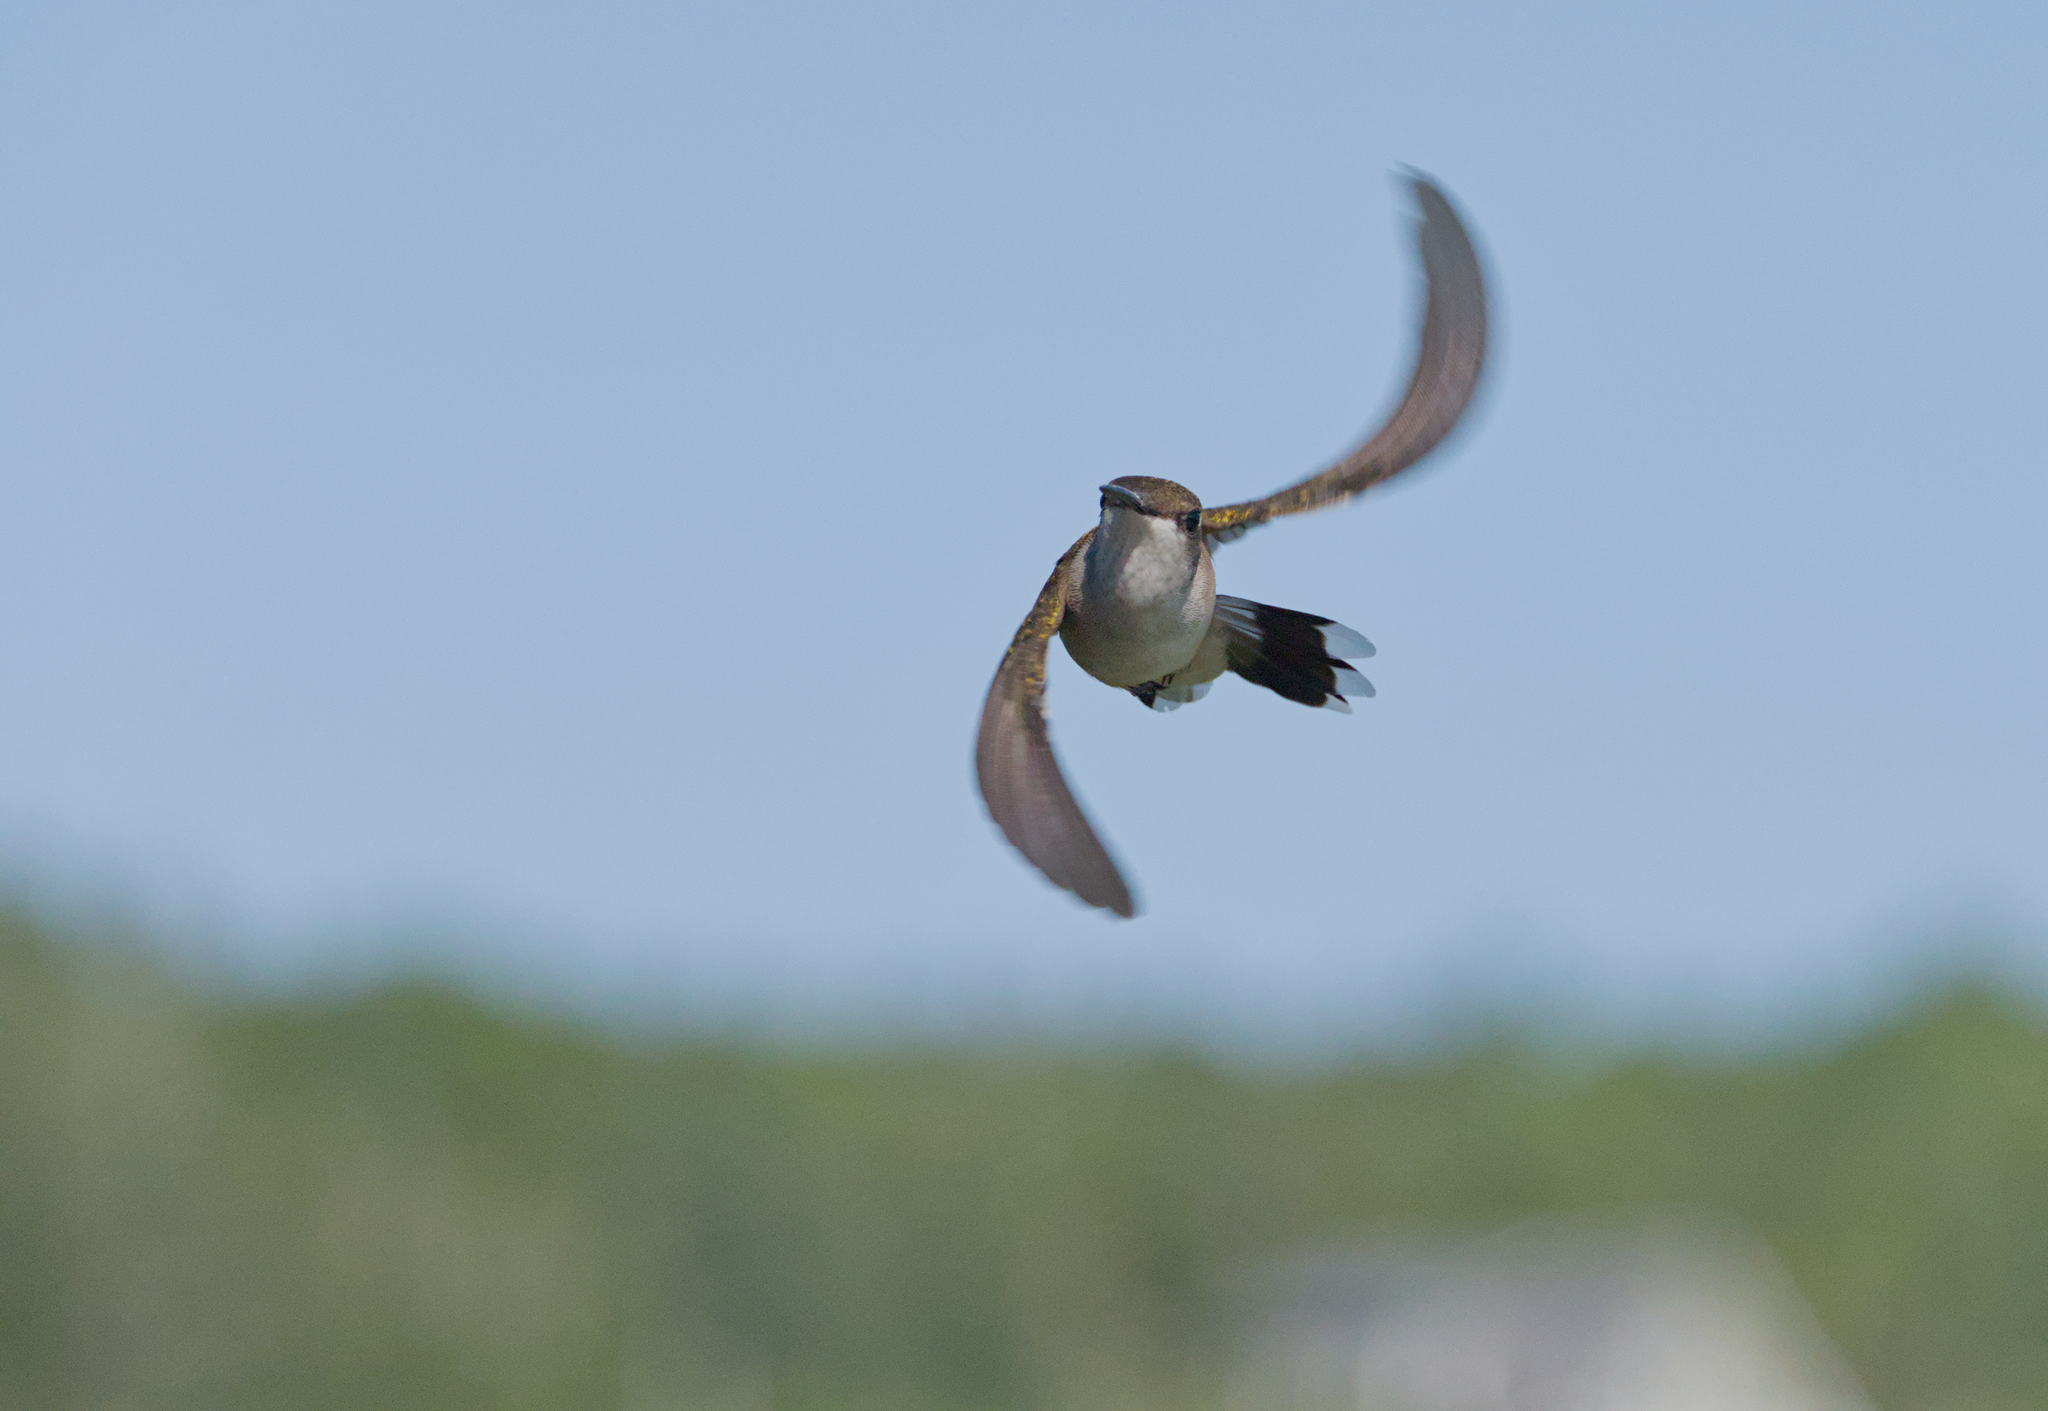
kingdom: Animalia
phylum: Chordata
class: Aves
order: Apodiformes
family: Trochilidae
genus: Archilochus
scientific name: Archilochus colubris
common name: Ruby-throated hummingbird
